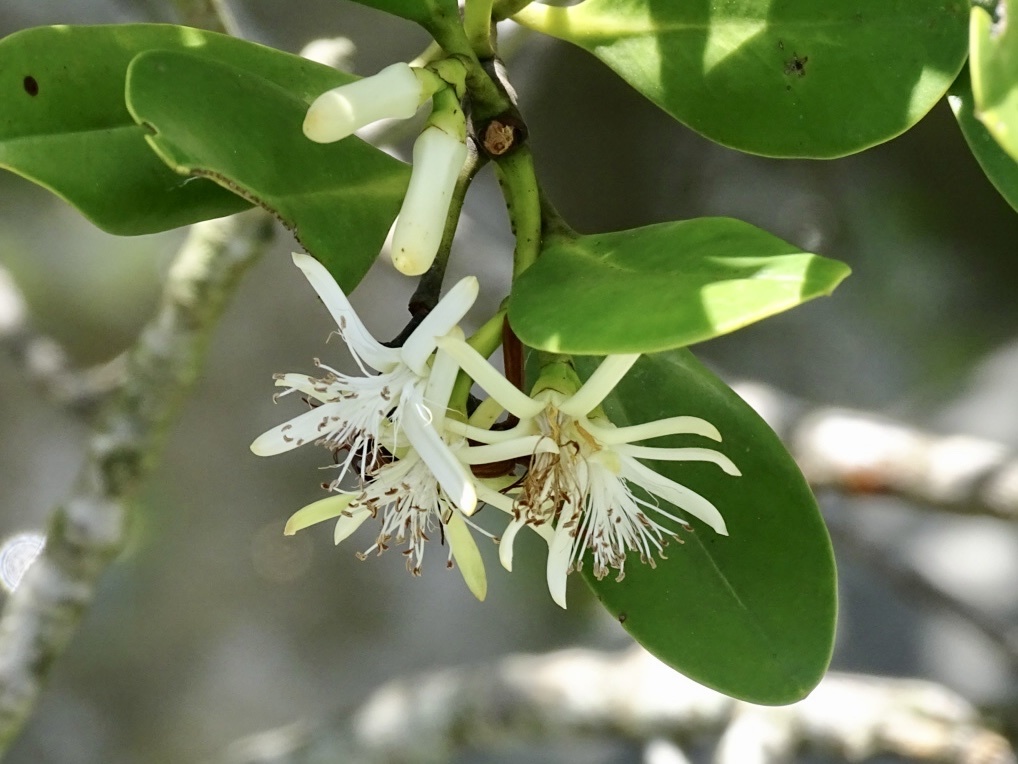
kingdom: Plantae
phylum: Tracheophyta
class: Magnoliopsida
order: Malpighiales
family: Rhizophoraceae
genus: Kandelia
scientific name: Kandelia obovata
